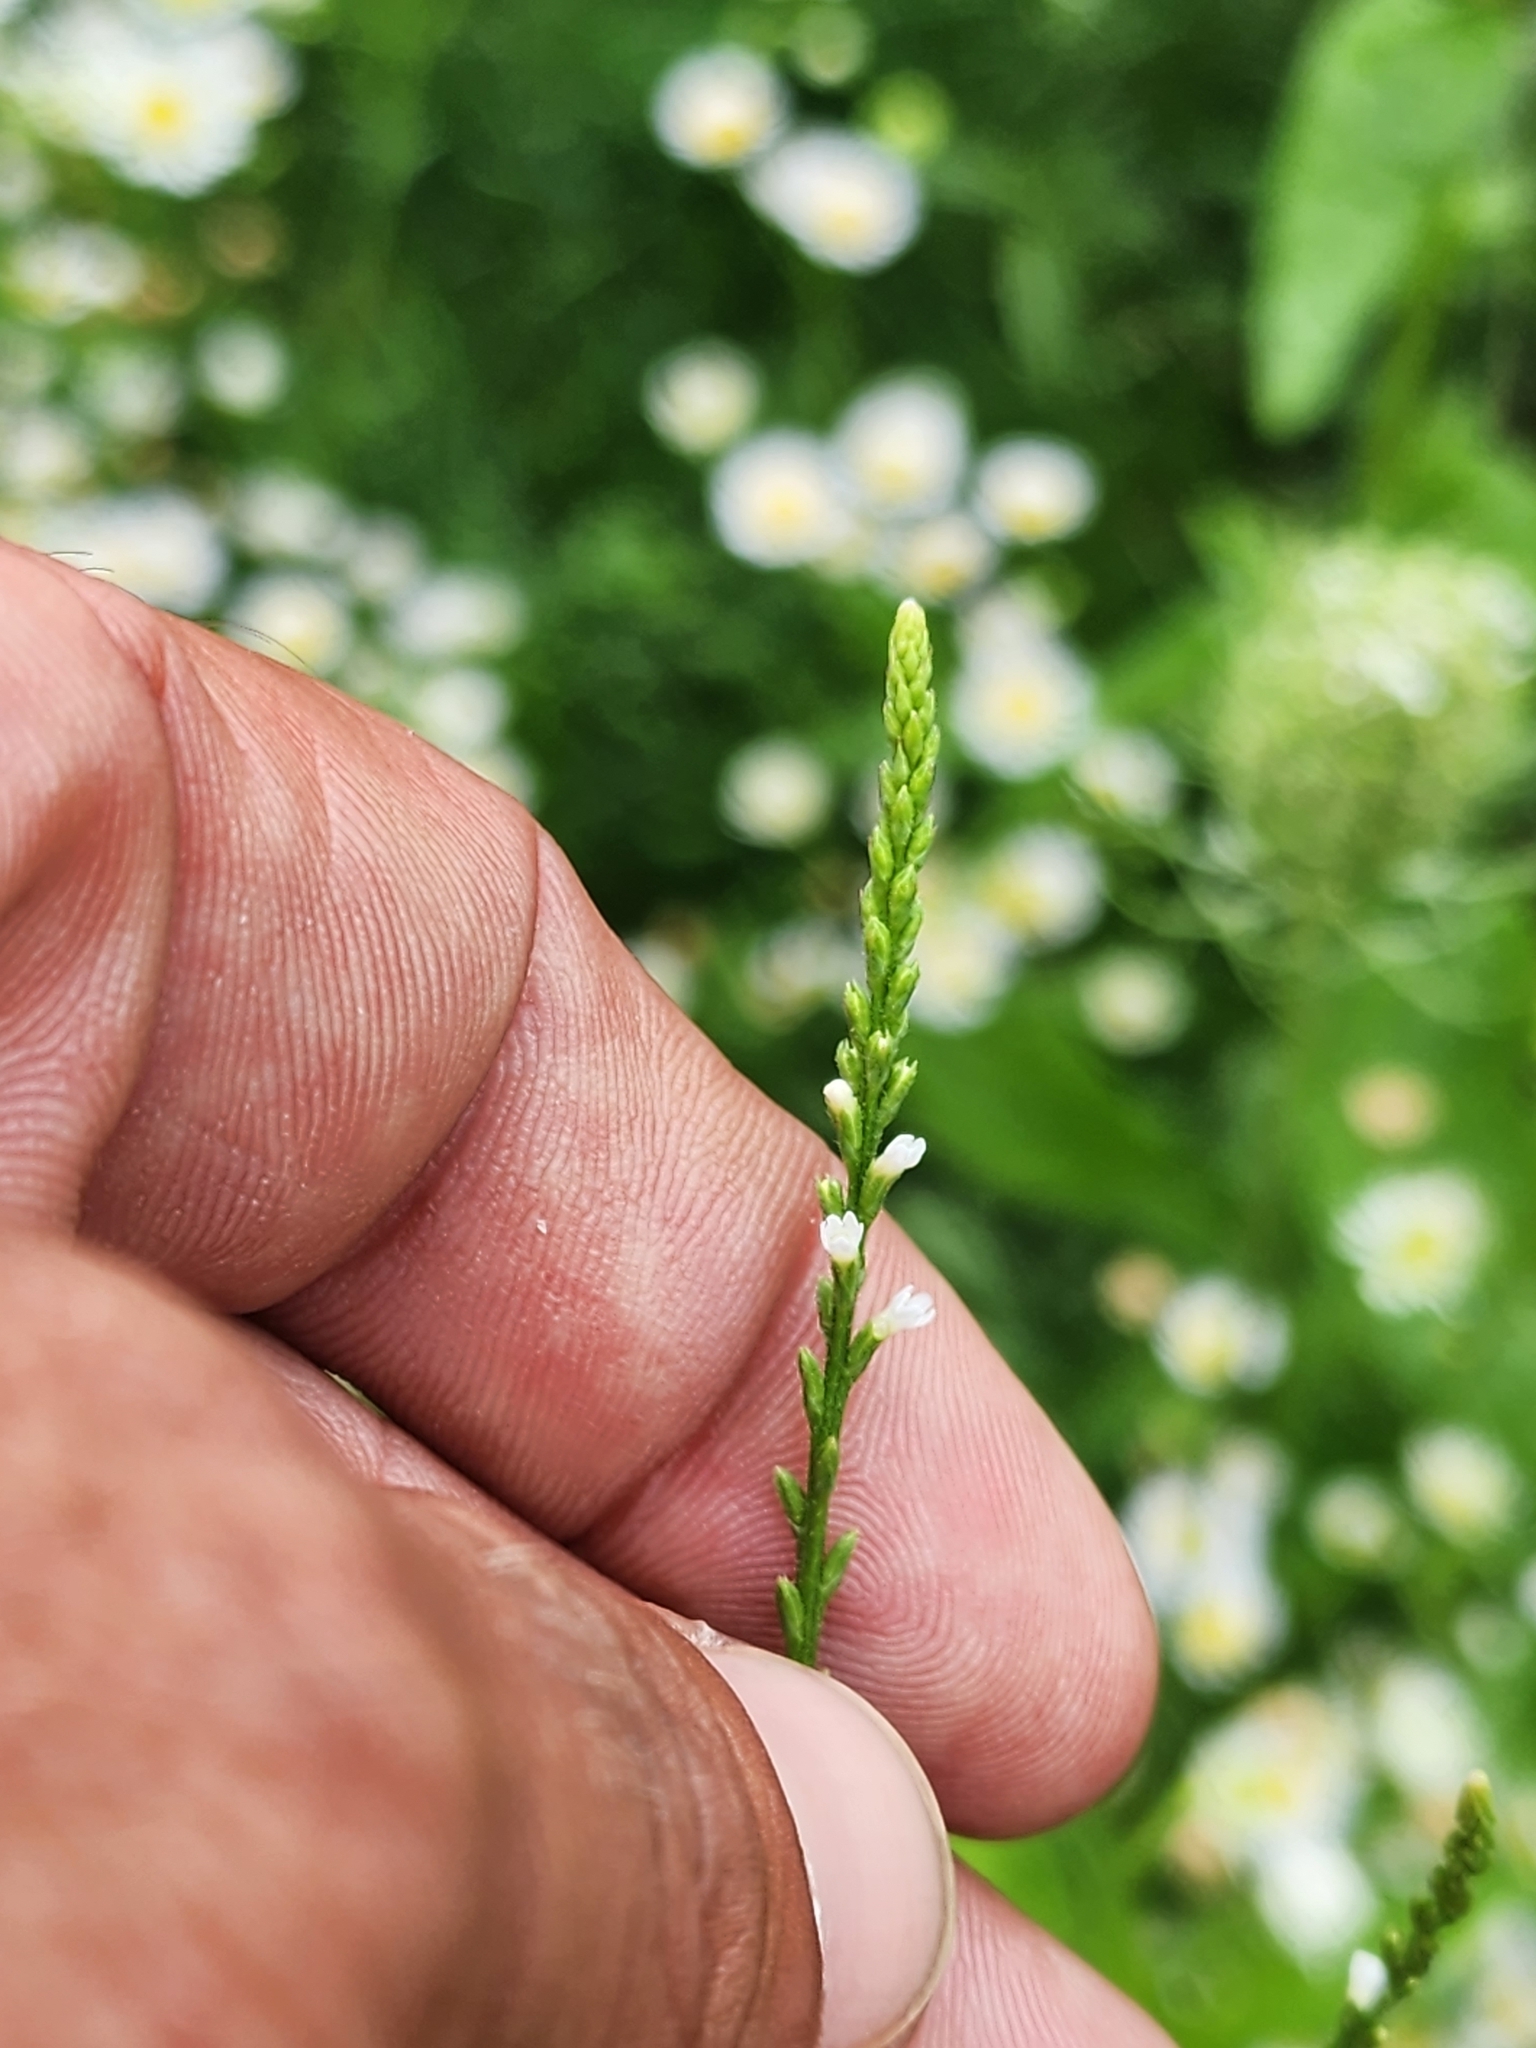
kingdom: Plantae
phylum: Tracheophyta
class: Magnoliopsida
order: Lamiales
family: Verbenaceae
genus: Verbena
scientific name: Verbena urticifolia
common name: Nettle-leaved vervain
